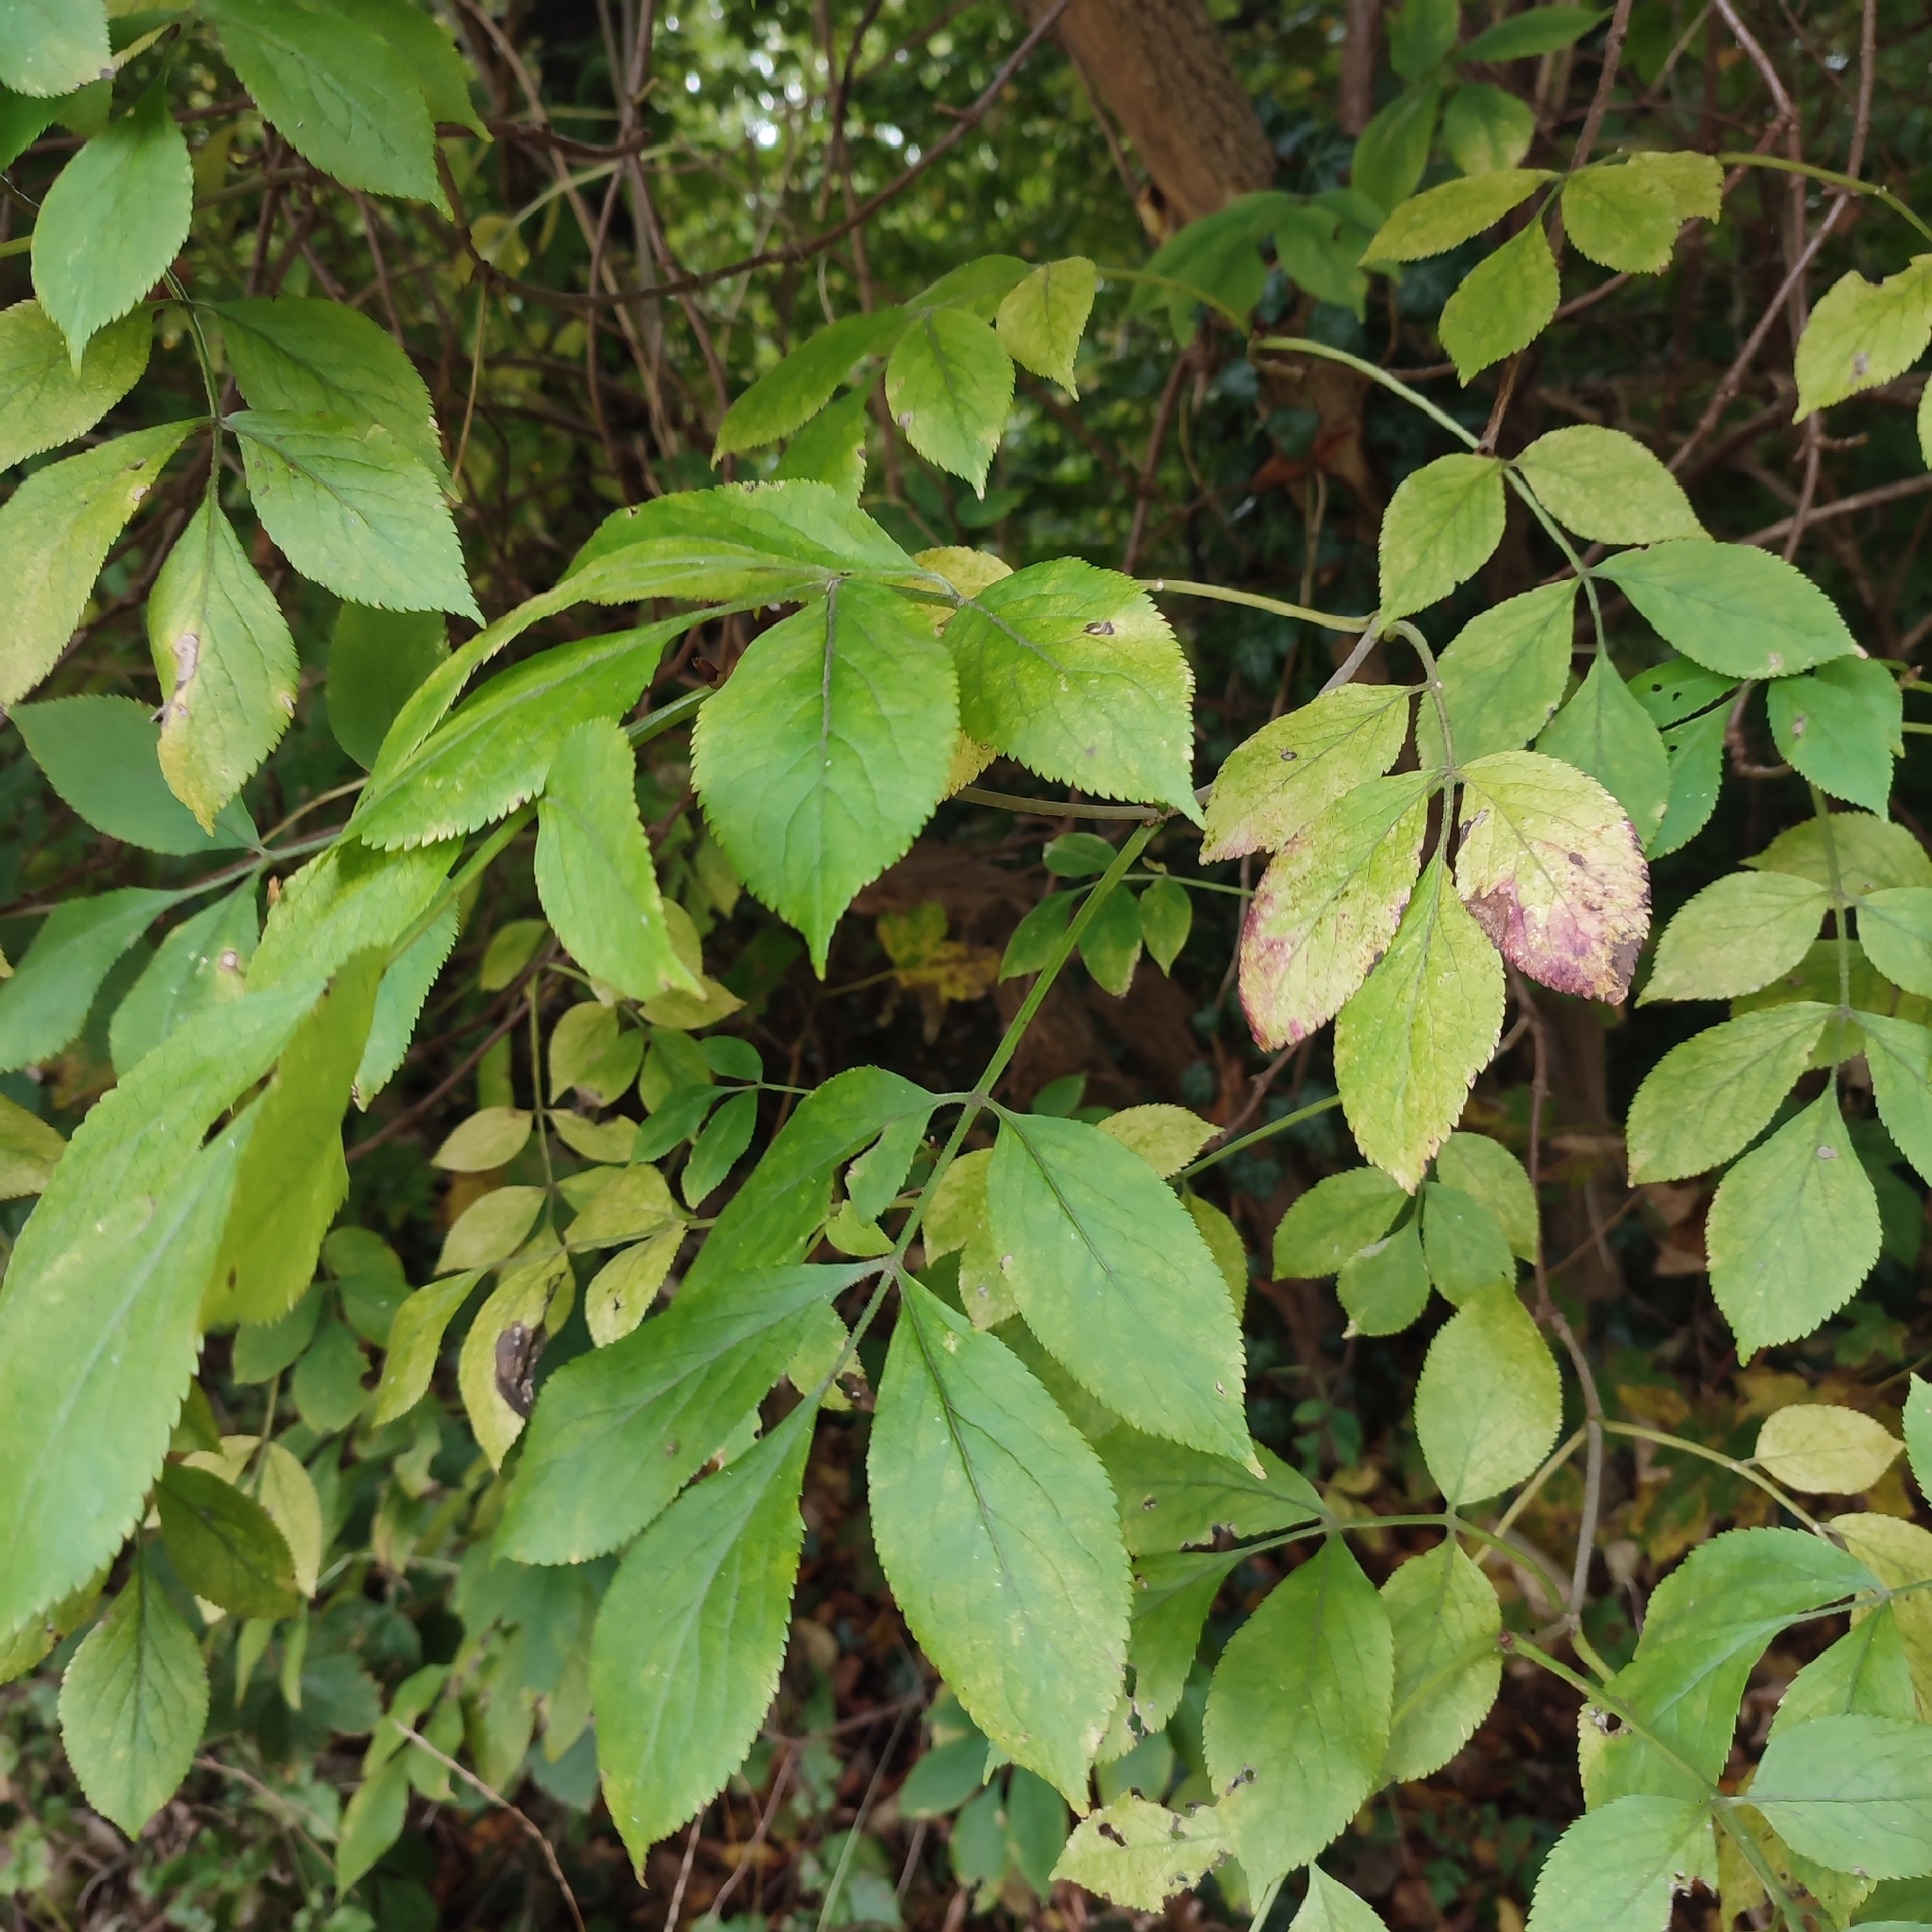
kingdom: Plantae
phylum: Tracheophyta
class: Magnoliopsida
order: Dipsacales
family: Viburnaceae
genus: Sambucus
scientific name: Sambucus nigra
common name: Elder
